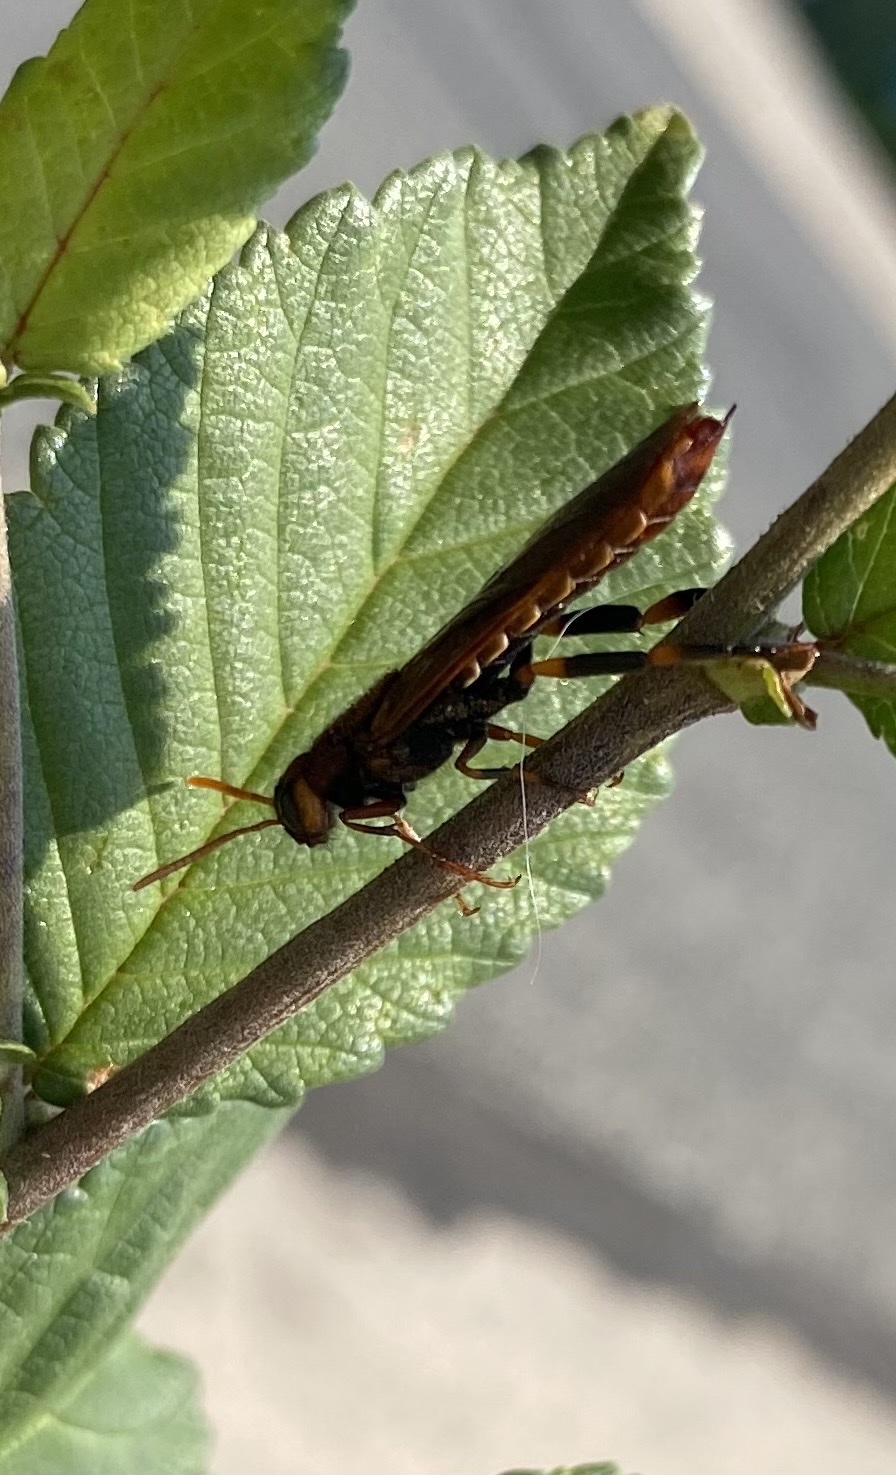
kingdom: Animalia
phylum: Arthropoda
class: Insecta
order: Hymenoptera
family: Siricidae
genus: Tremex
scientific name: Tremex columba
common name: Wasp
